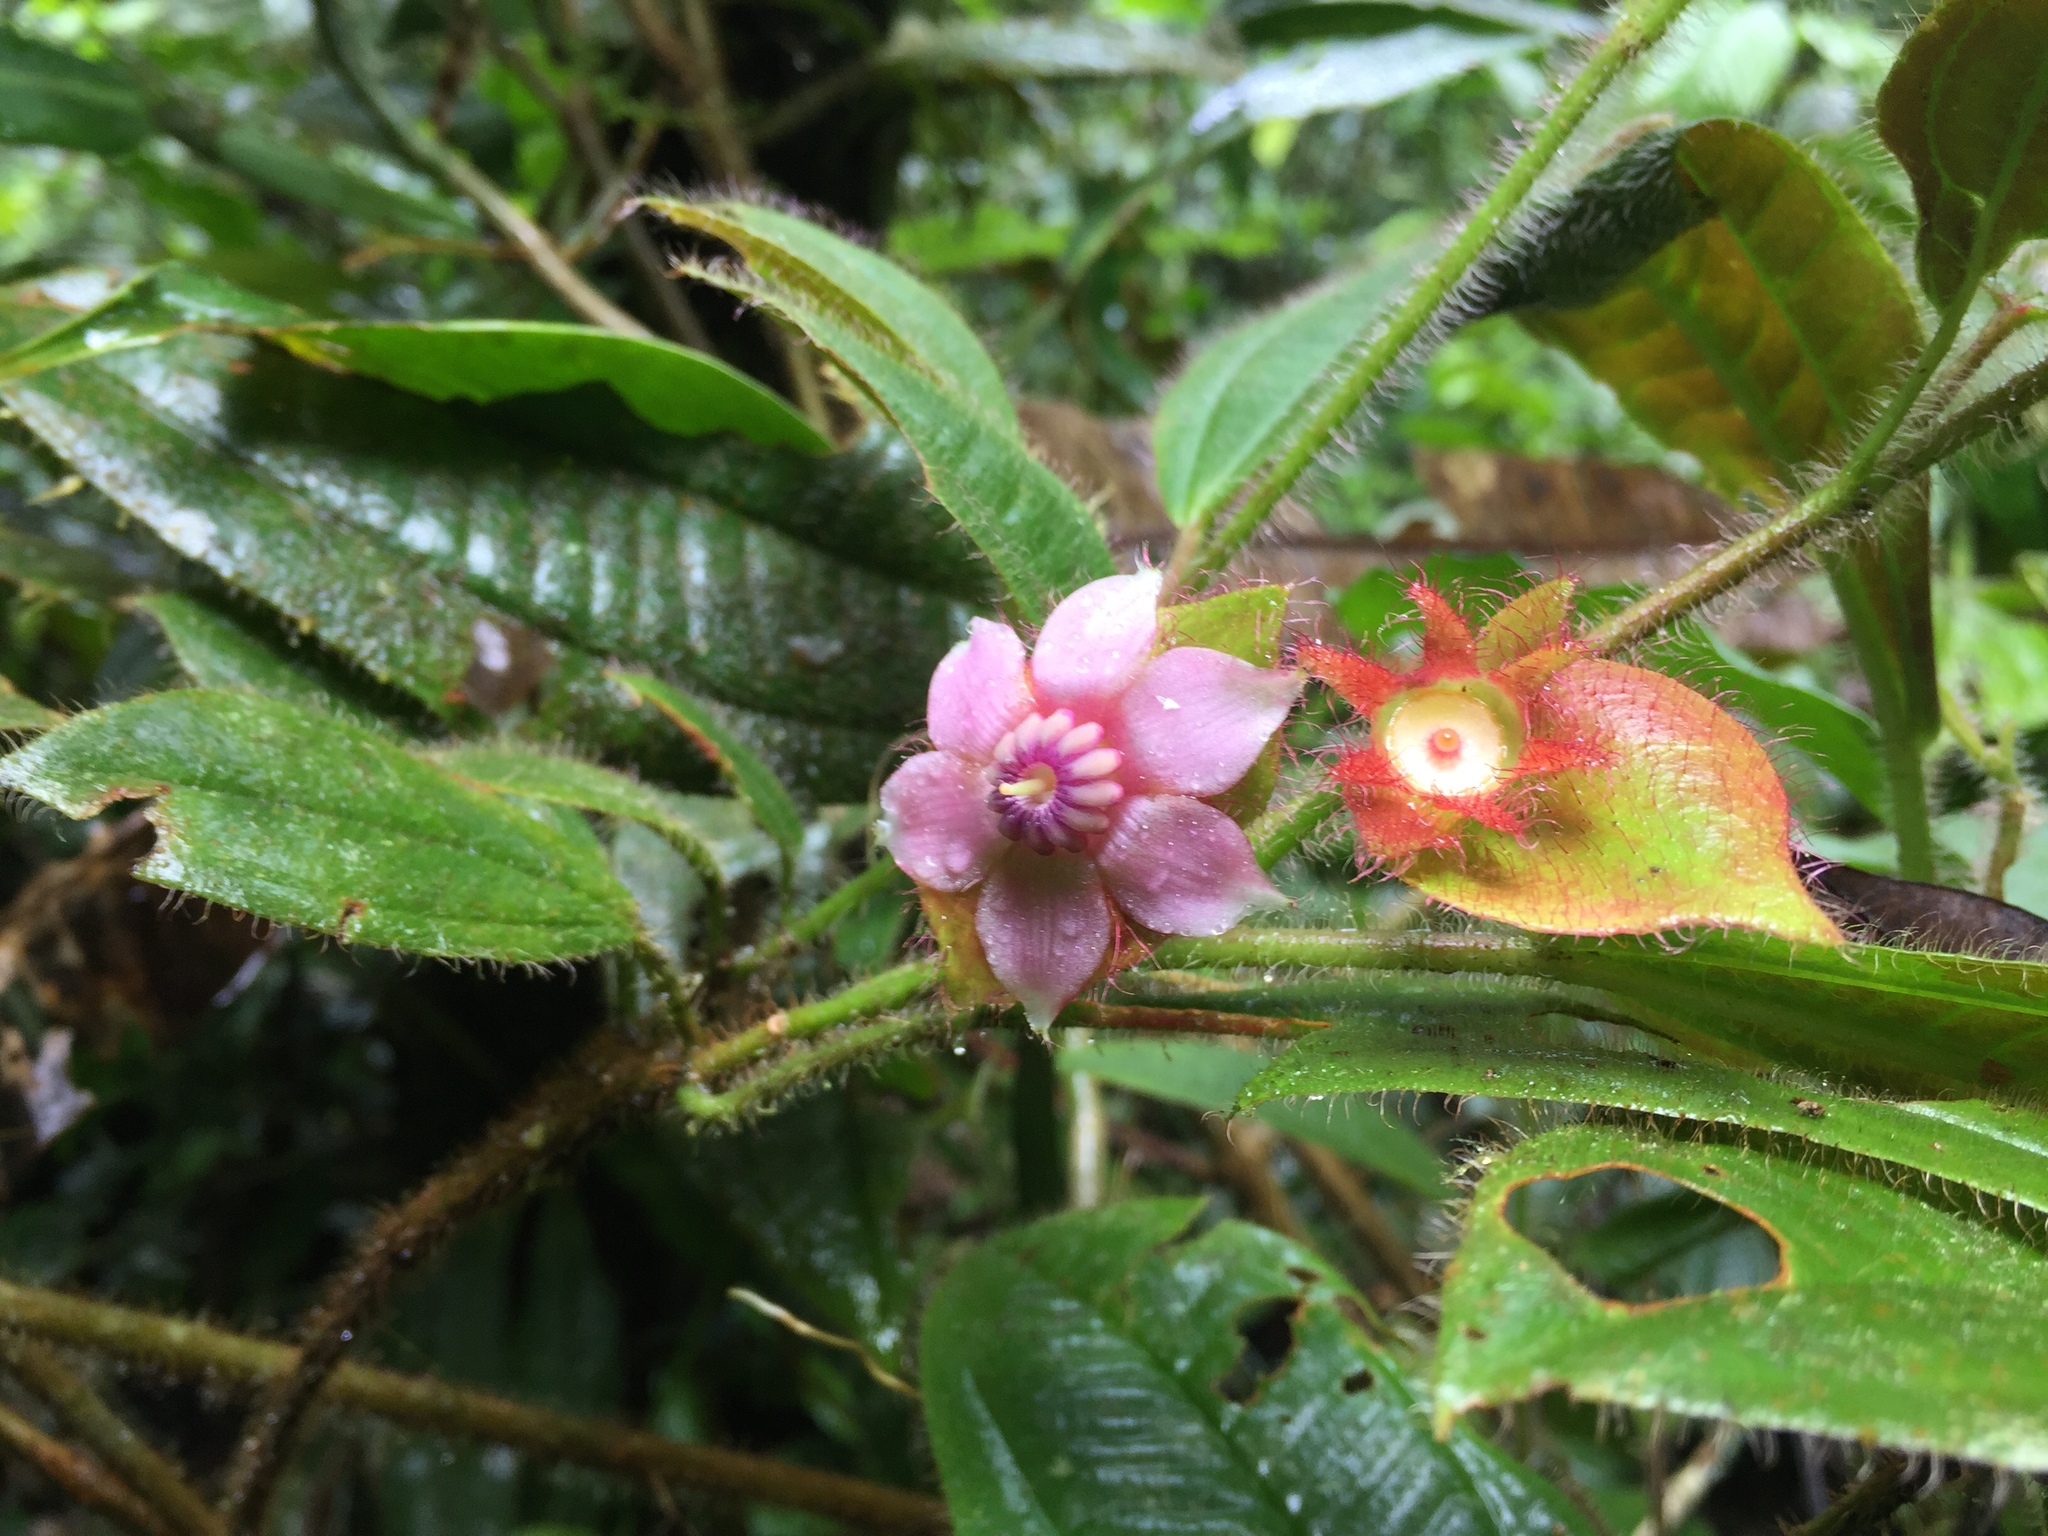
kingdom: Plantae
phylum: Tracheophyta
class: Magnoliopsida
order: Myrtales
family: Melastomataceae
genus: Blakea
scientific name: Blakea bracteata
